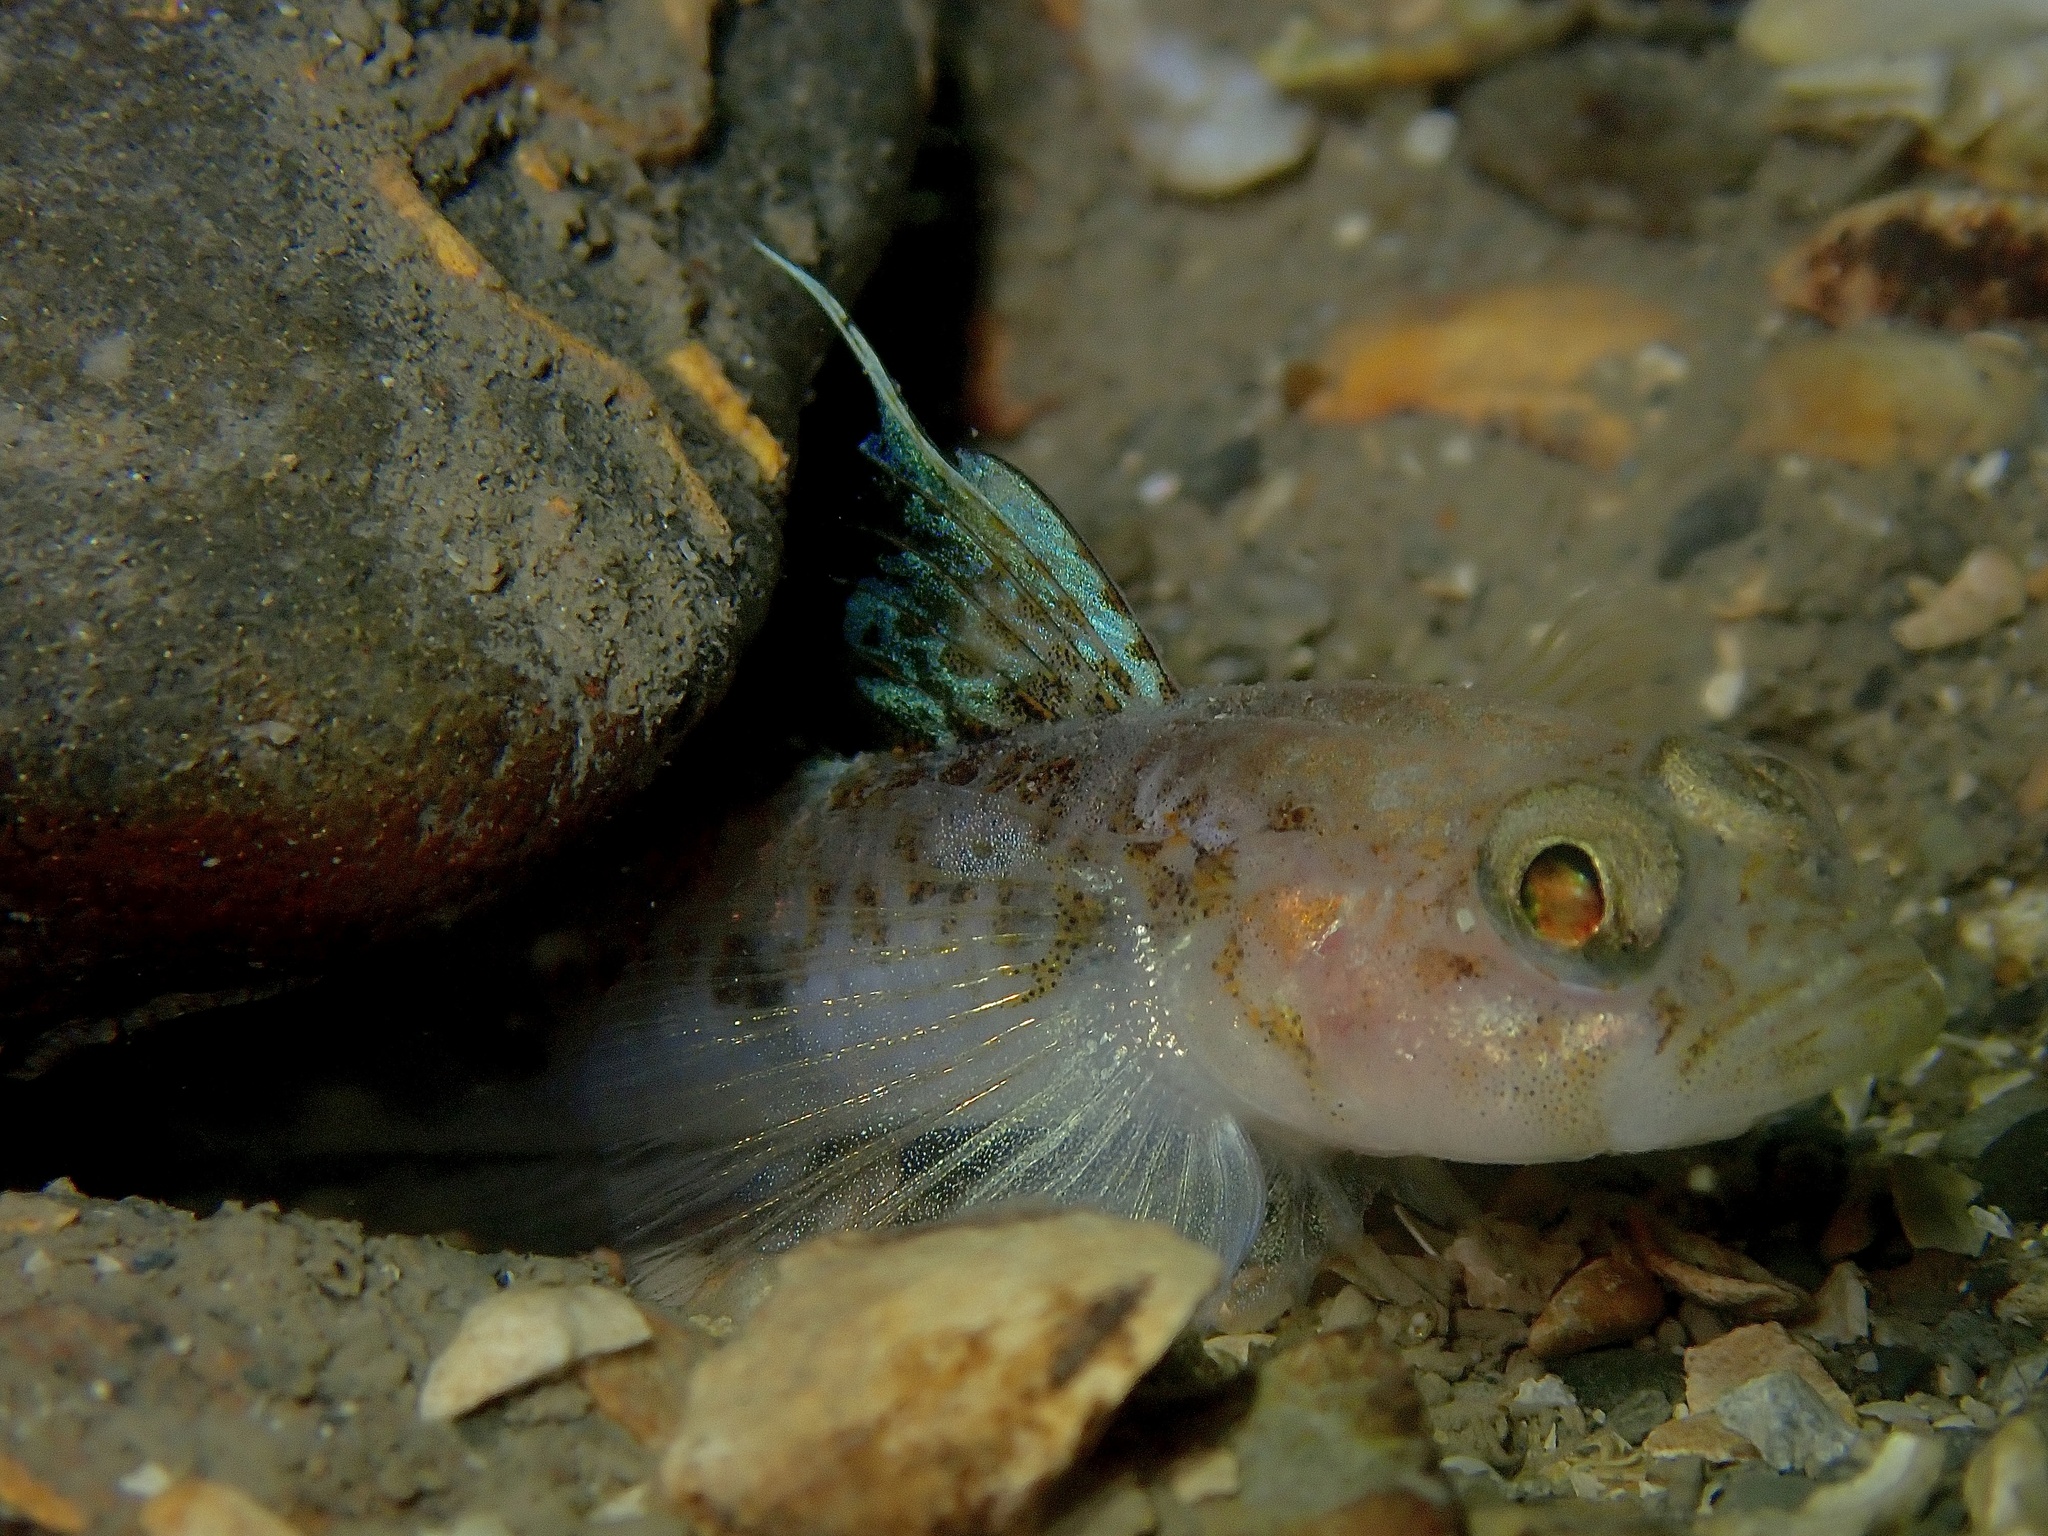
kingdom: Animalia
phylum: Chordata
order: Perciformes
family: Gobiidae
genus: Buenia
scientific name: Buenia jeffreysii
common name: Jeffrey's goby
